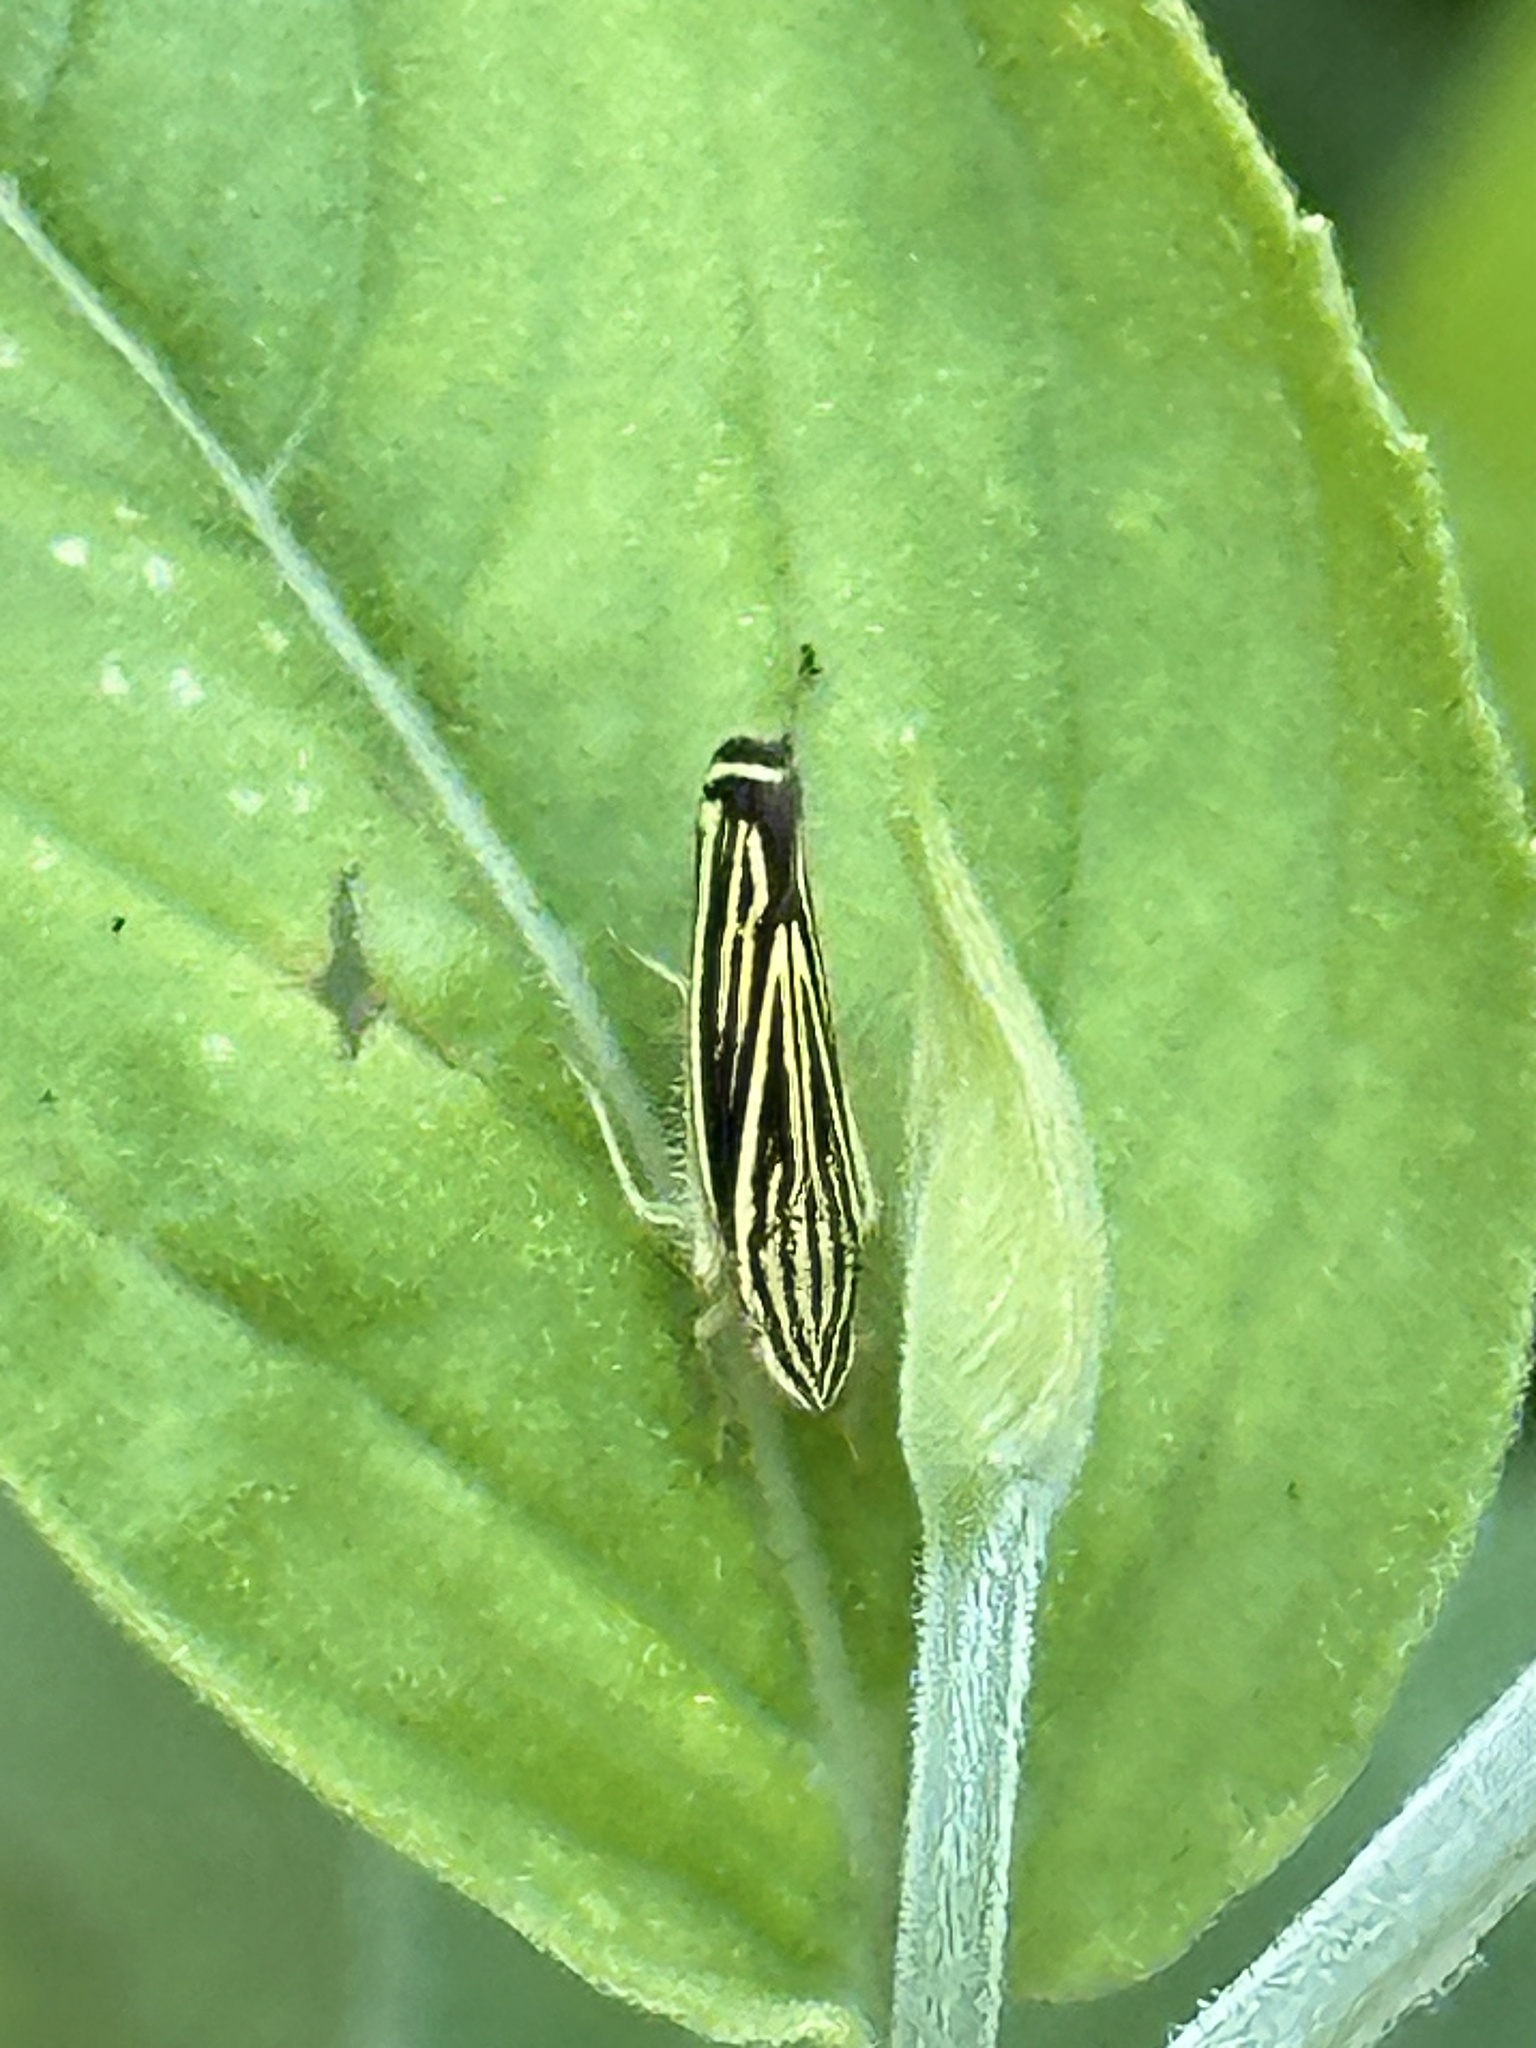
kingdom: Animalia
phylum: Arthropoda
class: Insecta
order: Hemiptera
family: Cicadellidae
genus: Sibovia
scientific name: Sibovia occatoria
